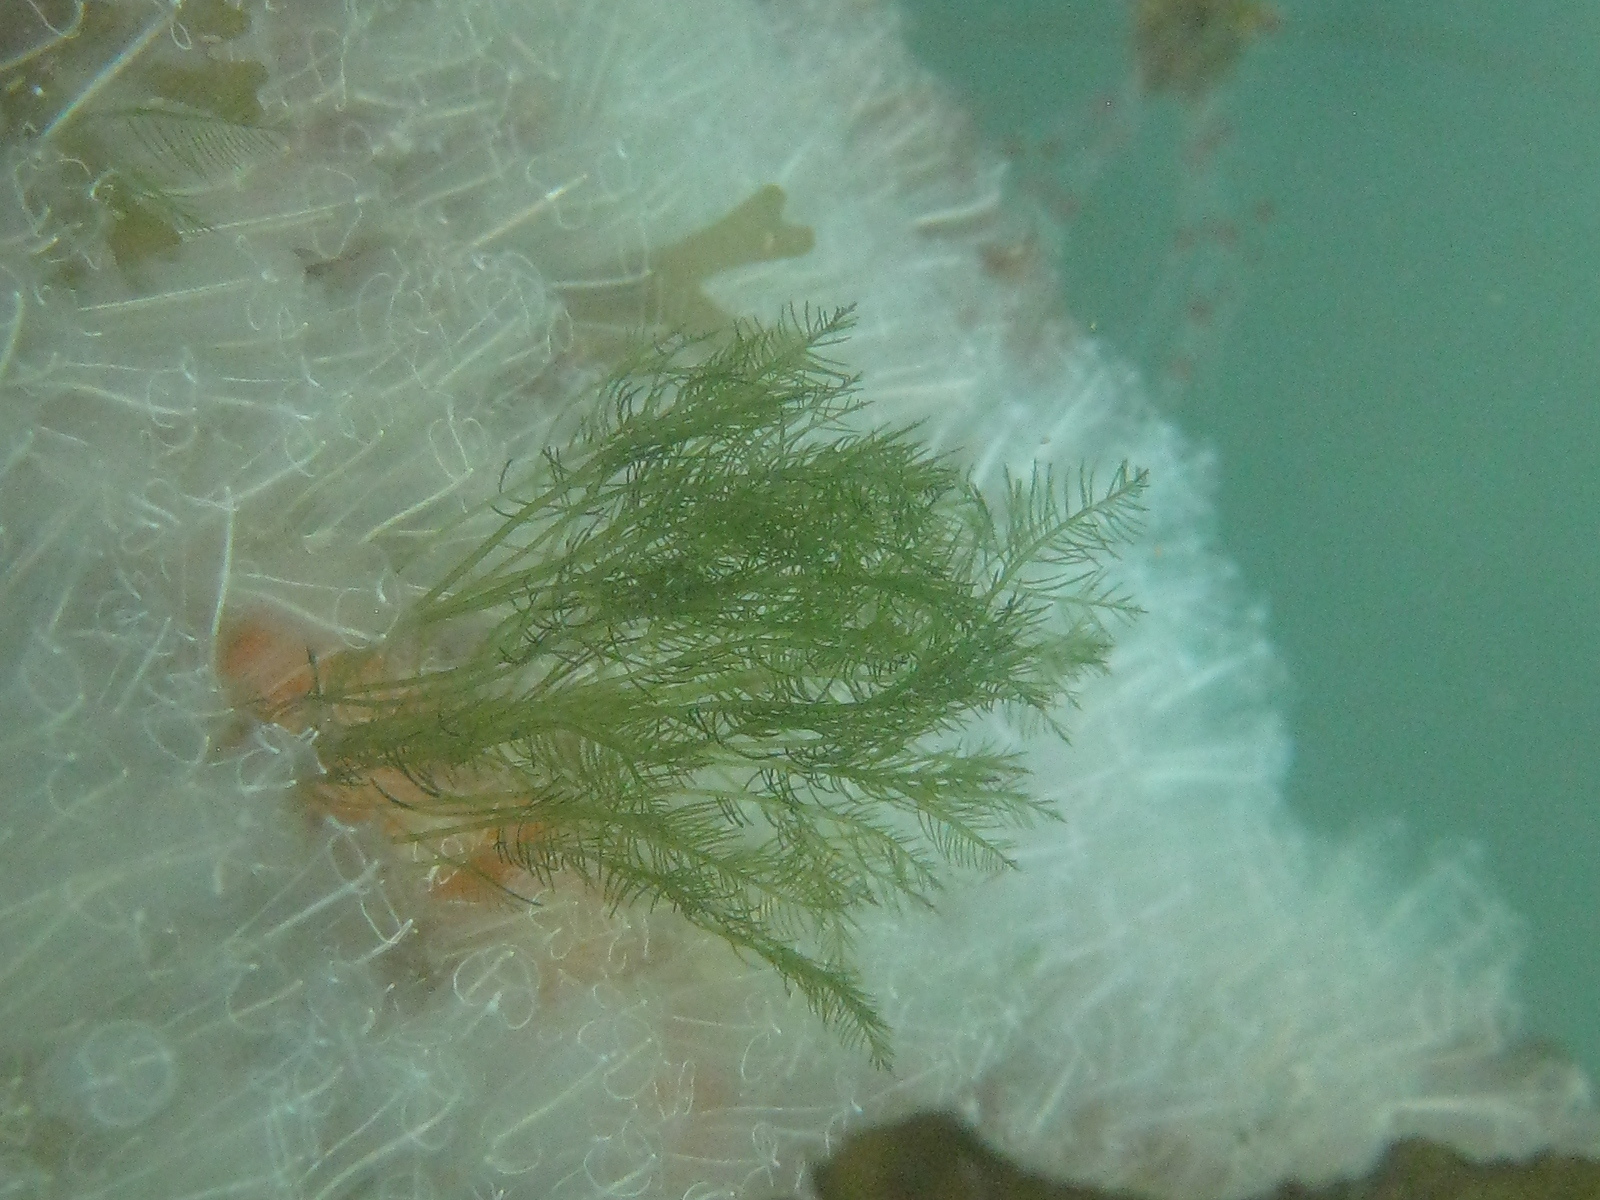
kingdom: Plantae
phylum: Chlorophyta
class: Ulvophyceae
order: Bryopsidales
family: Bryopsidaceae
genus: Bryopsis
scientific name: Bryopsis plumosa
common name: Hen pen
